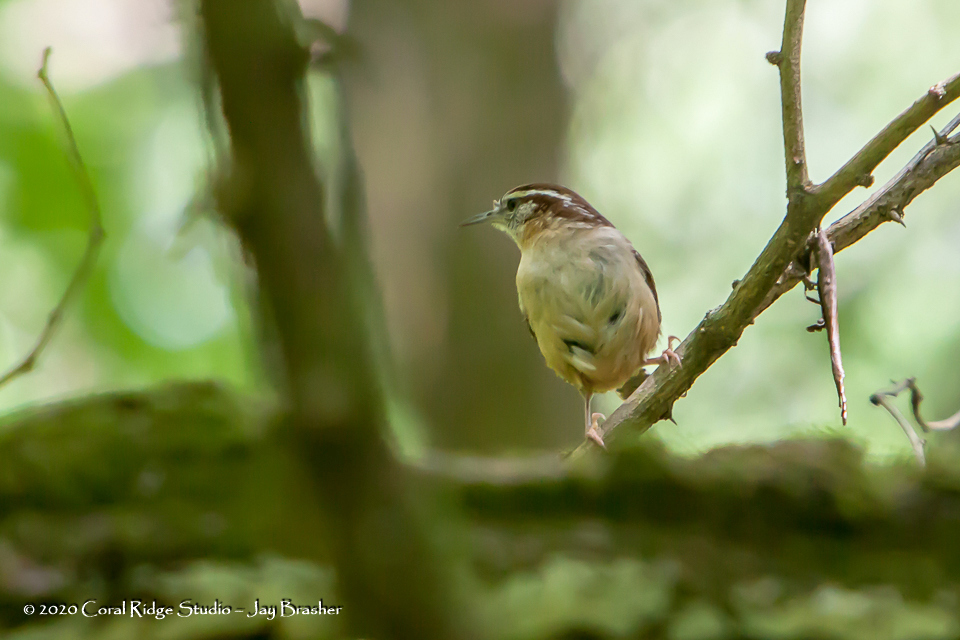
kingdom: Animalia
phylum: Chordata
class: Aves
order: Passeriformes
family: Troglodytidae
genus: Thryothorus
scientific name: Thryothorus ludovicianus
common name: Carolina wren
